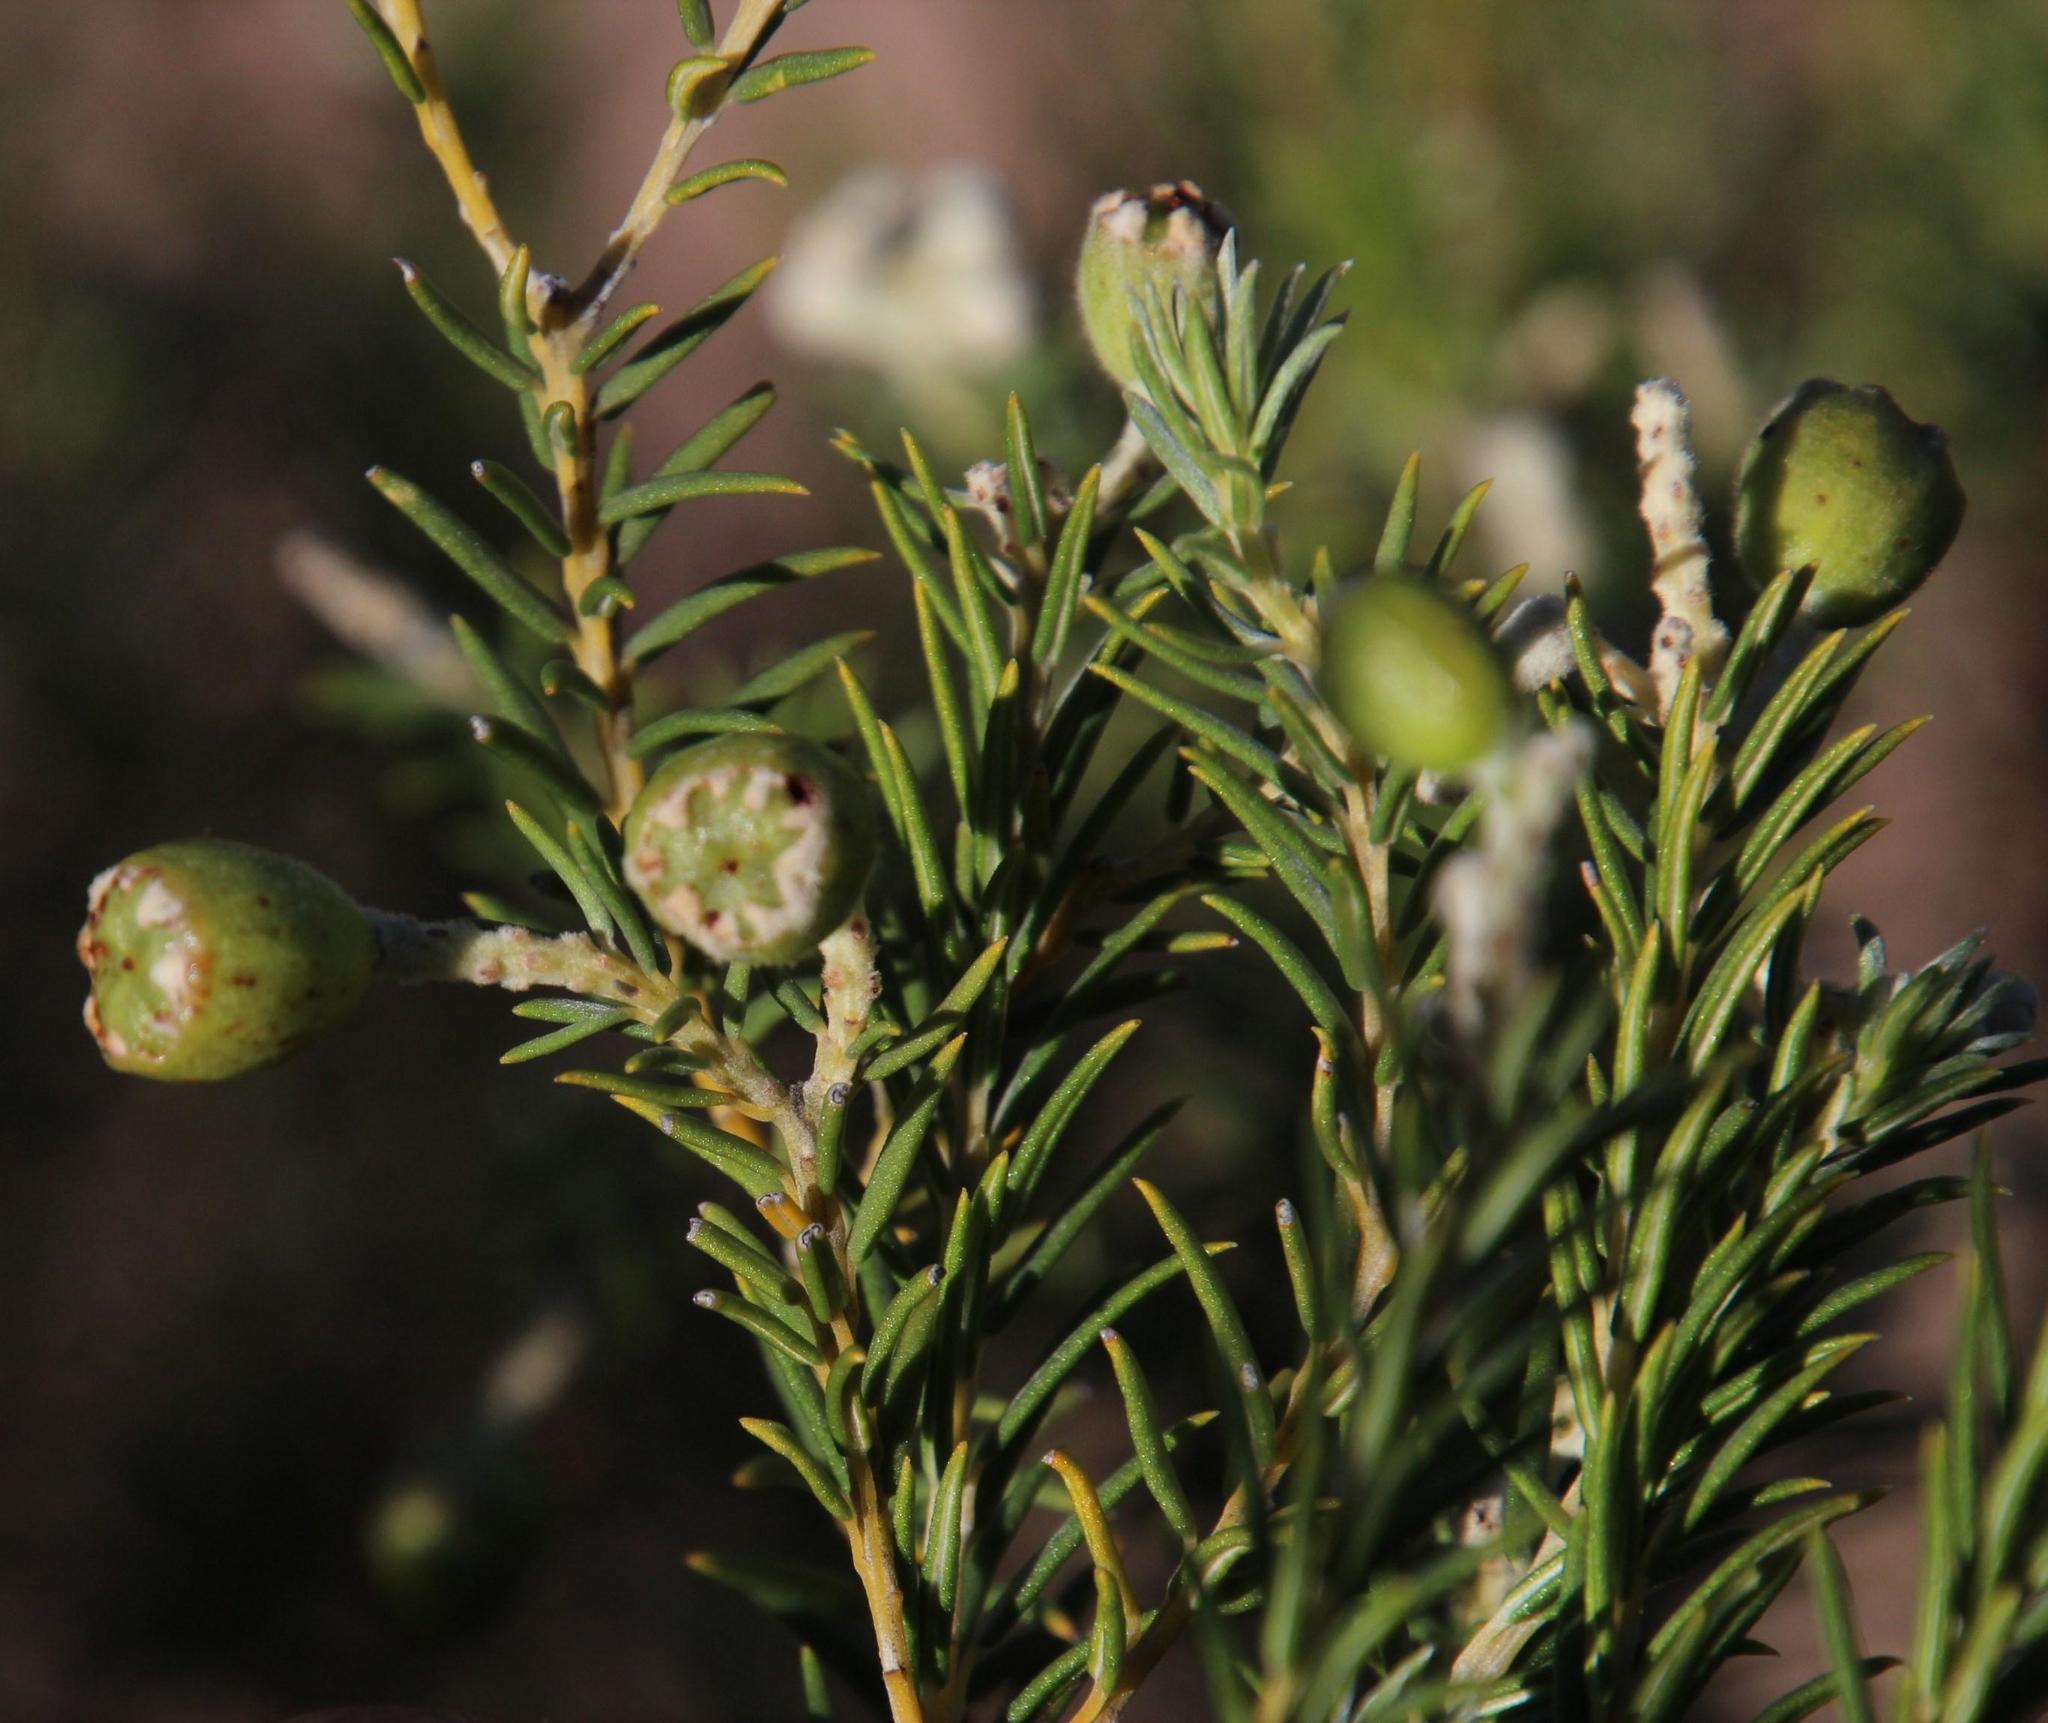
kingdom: Plantae
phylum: Tracheophyta
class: Magnoliopsida
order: Rosales
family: Rhamnaceae
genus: Phylica
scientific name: Phylica rigidifolia
